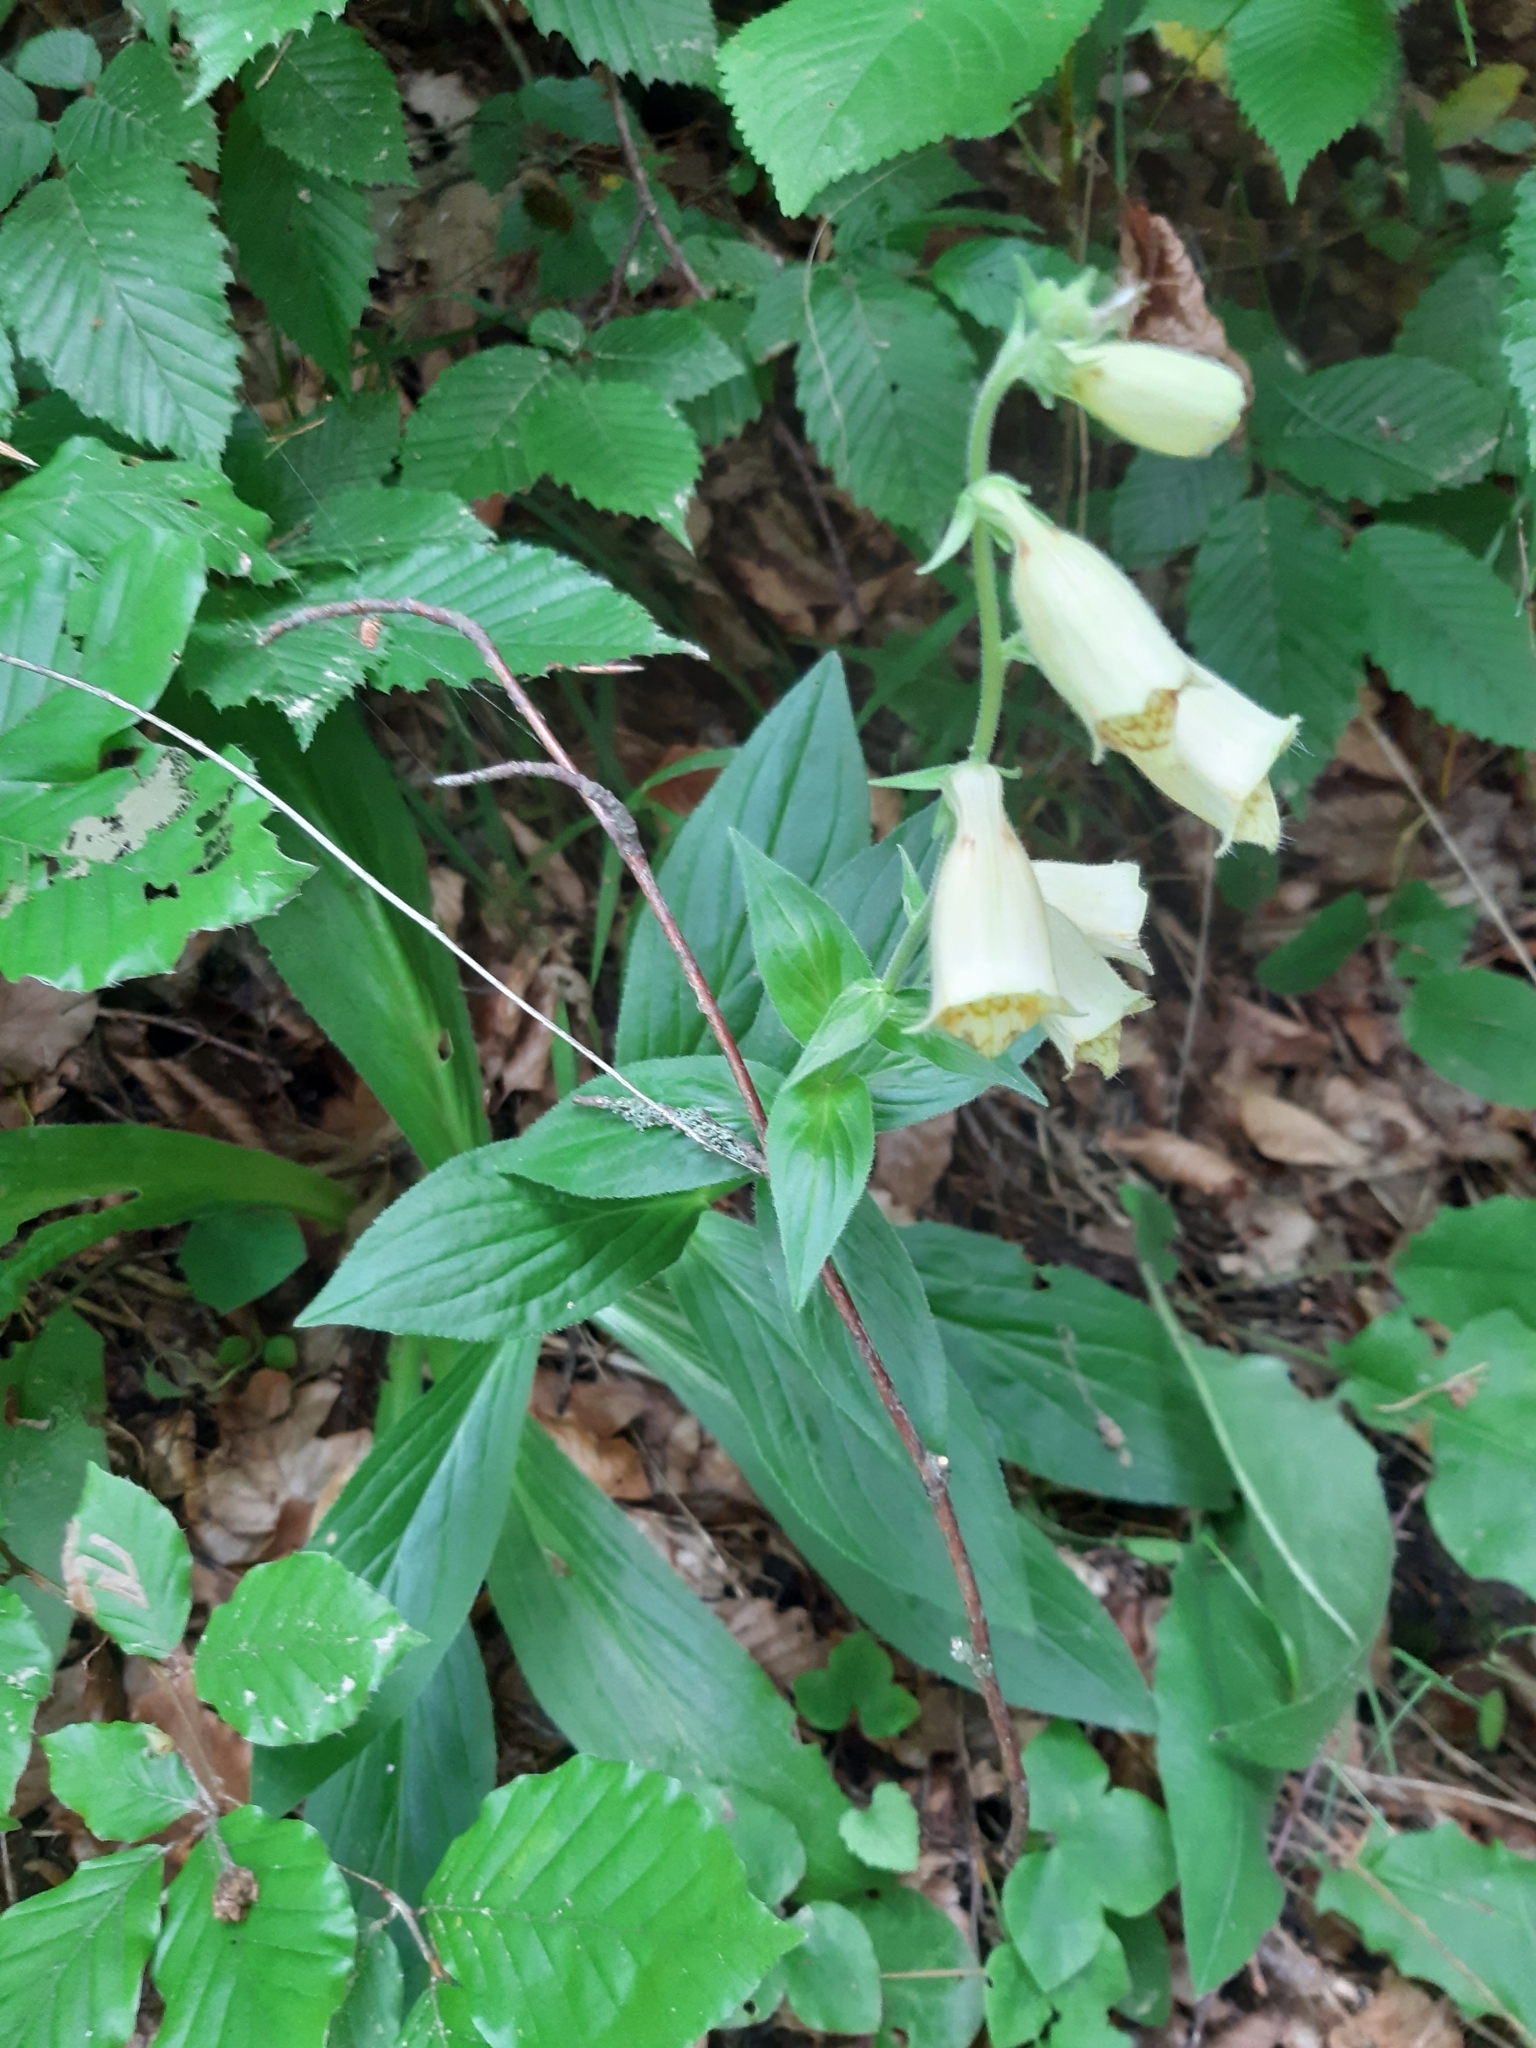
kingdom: Plantae
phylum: Tracheophyta
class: Magnoliopsida
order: Lamiales
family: Plantaginaceae
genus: Digitalis
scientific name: Digitalis grandiflora
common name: Yellow foxglove
